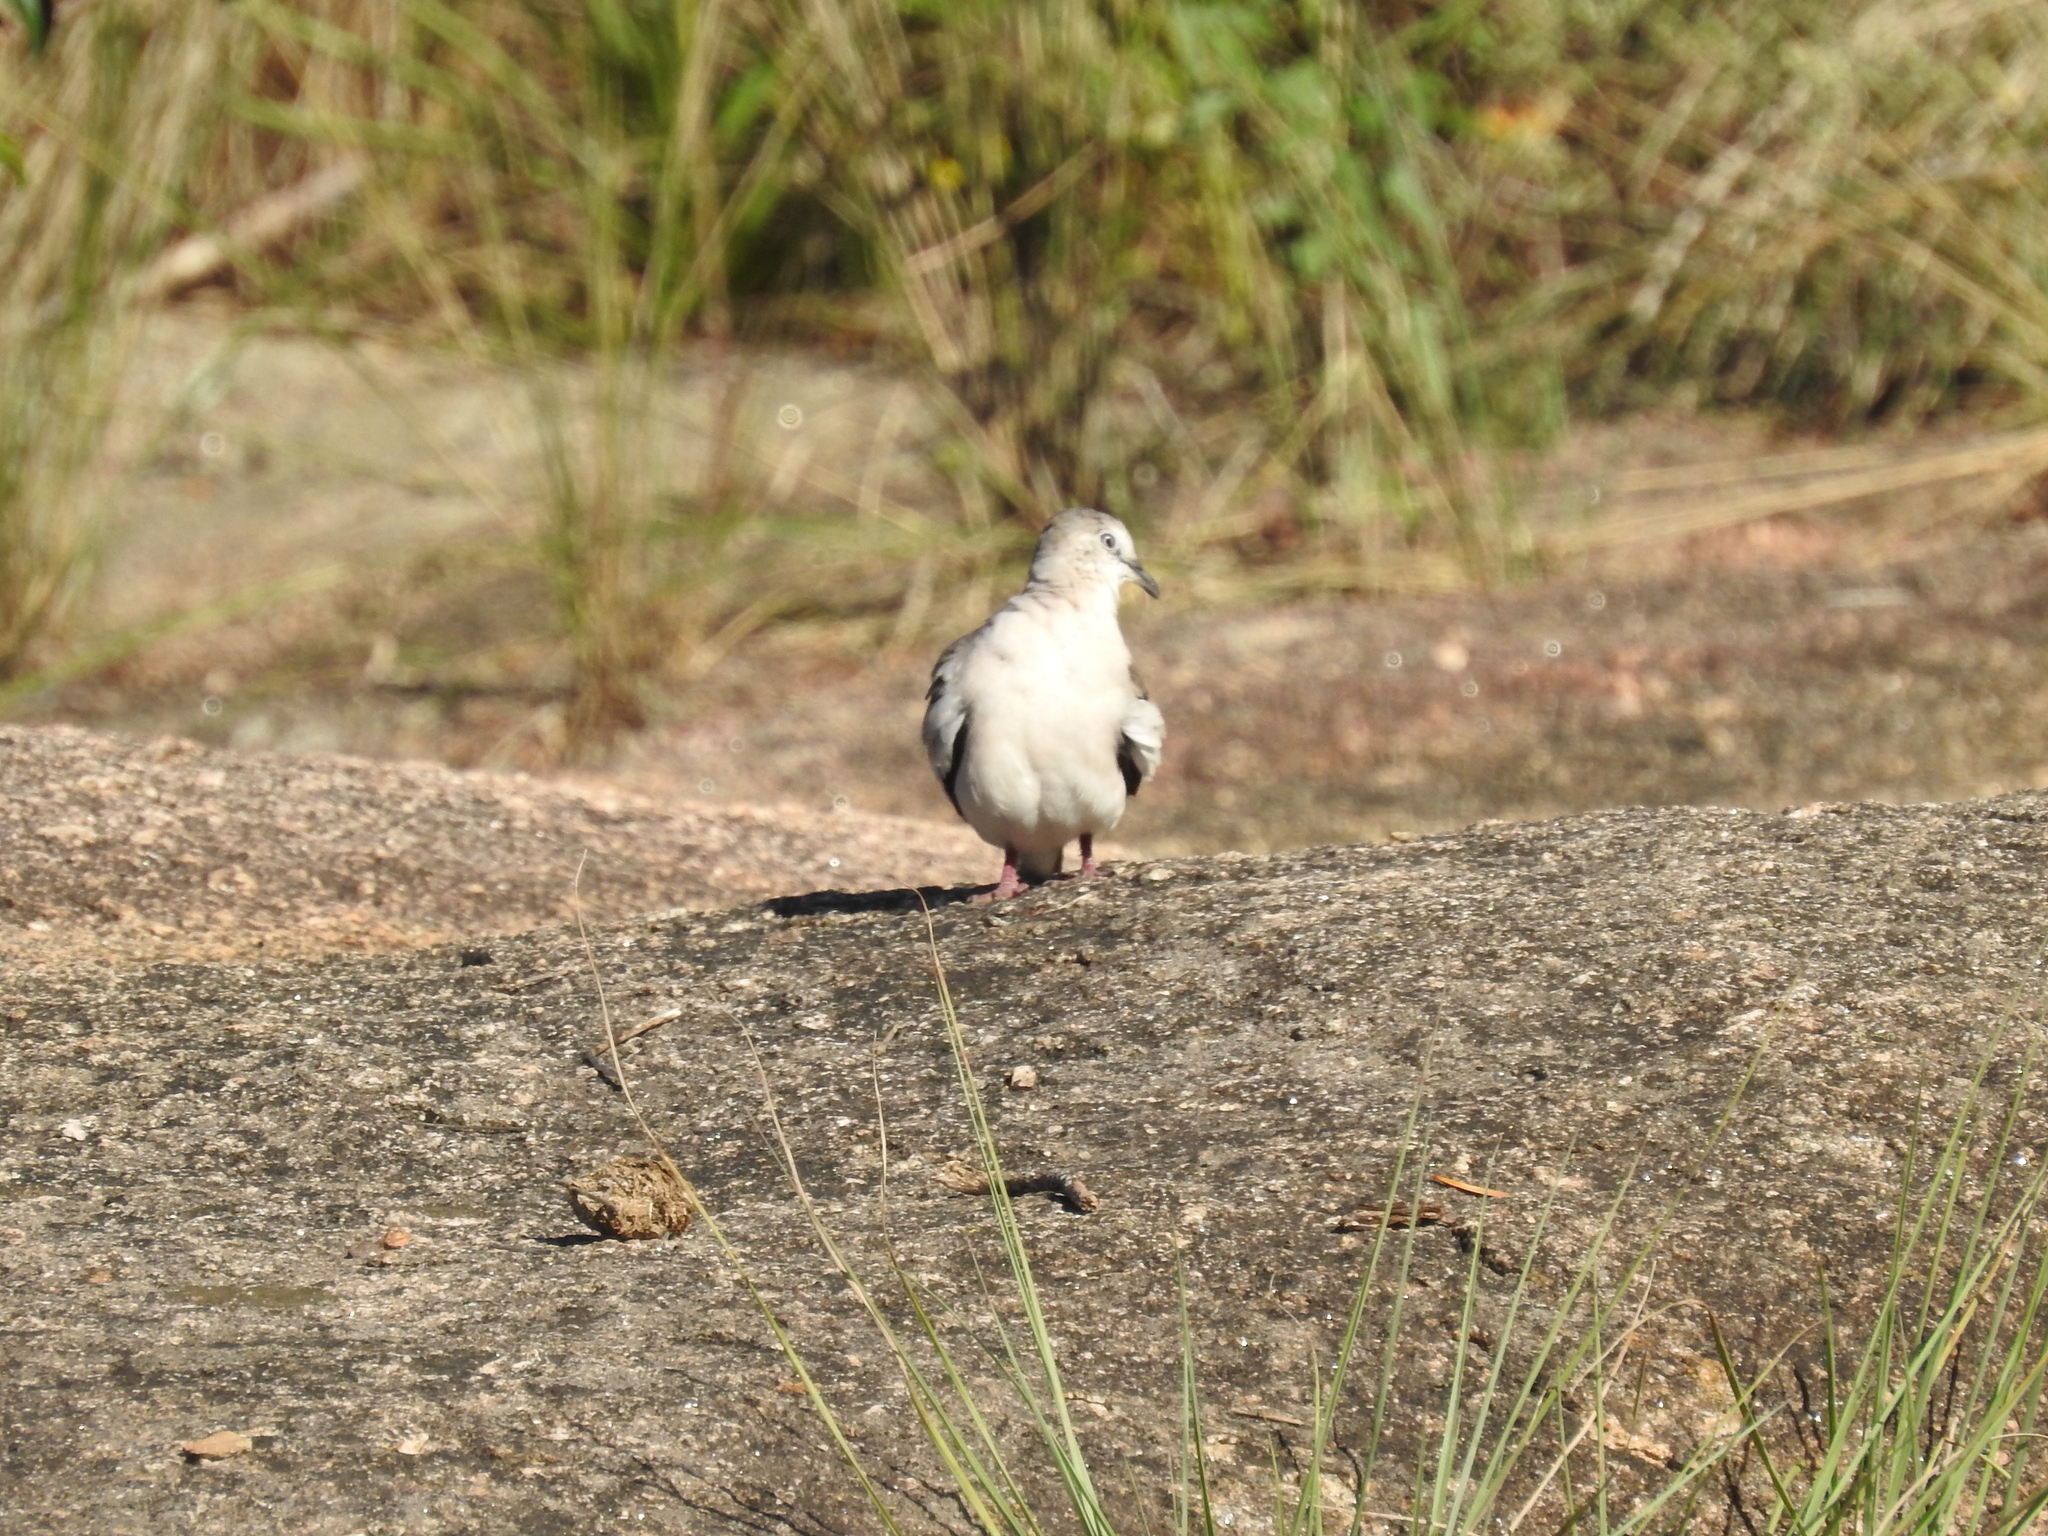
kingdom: Animalia
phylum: Chordata
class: Aves
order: Columbiformes
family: Columbidae
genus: Columbina
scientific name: Columbina picui
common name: Picui ground dove
